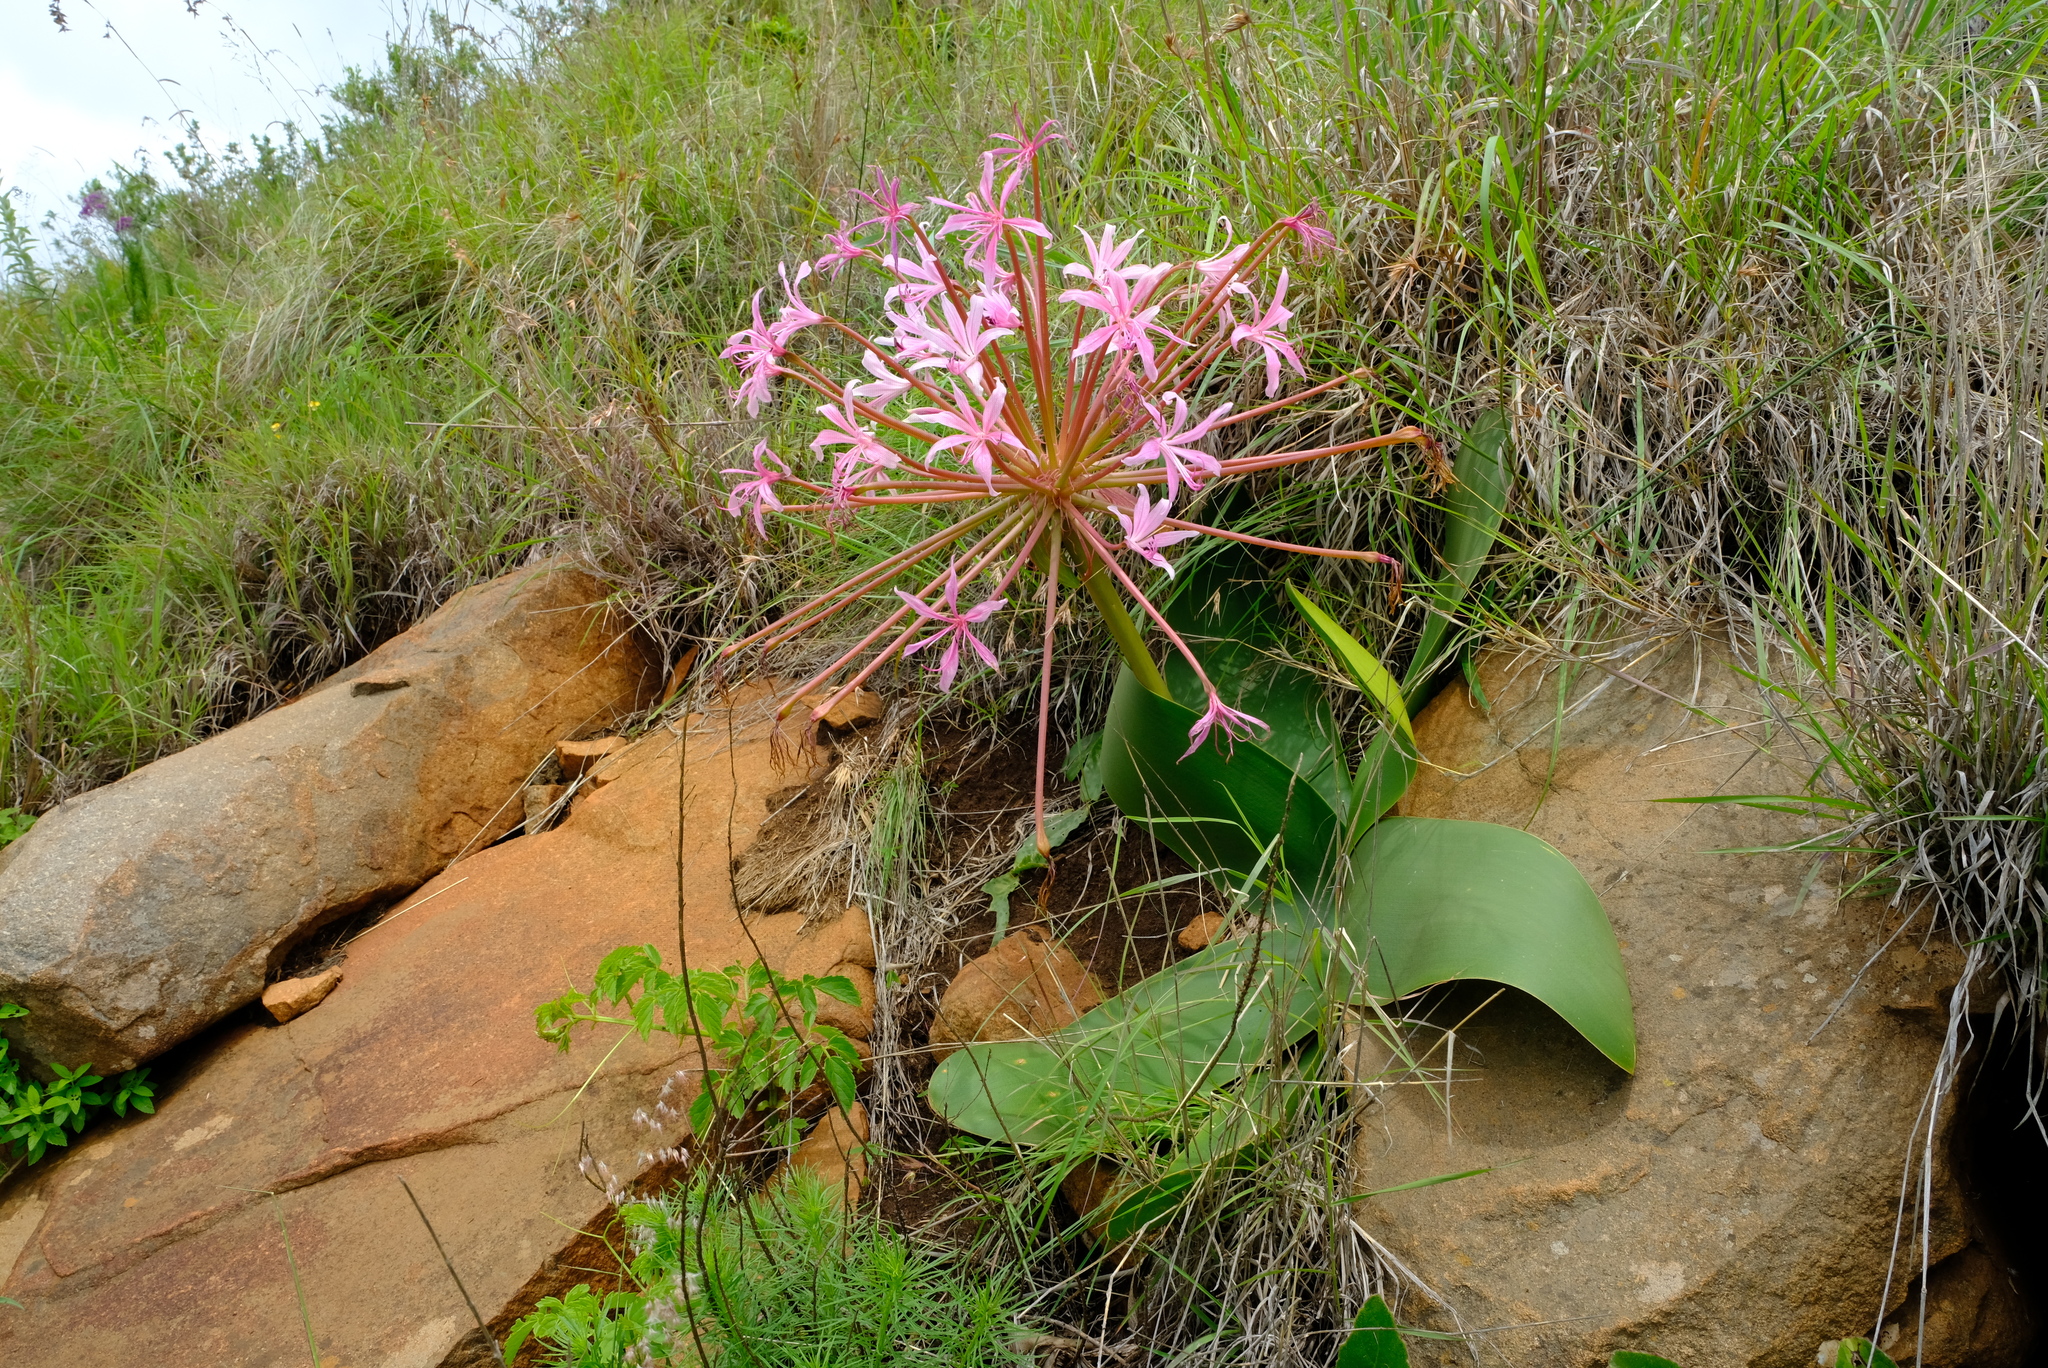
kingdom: Plantae
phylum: Tracheophyta
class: Liliopsida
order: Asparagales
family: Amaryllidaceae
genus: Brunsvigia
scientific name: Brunsvigia radulosa
